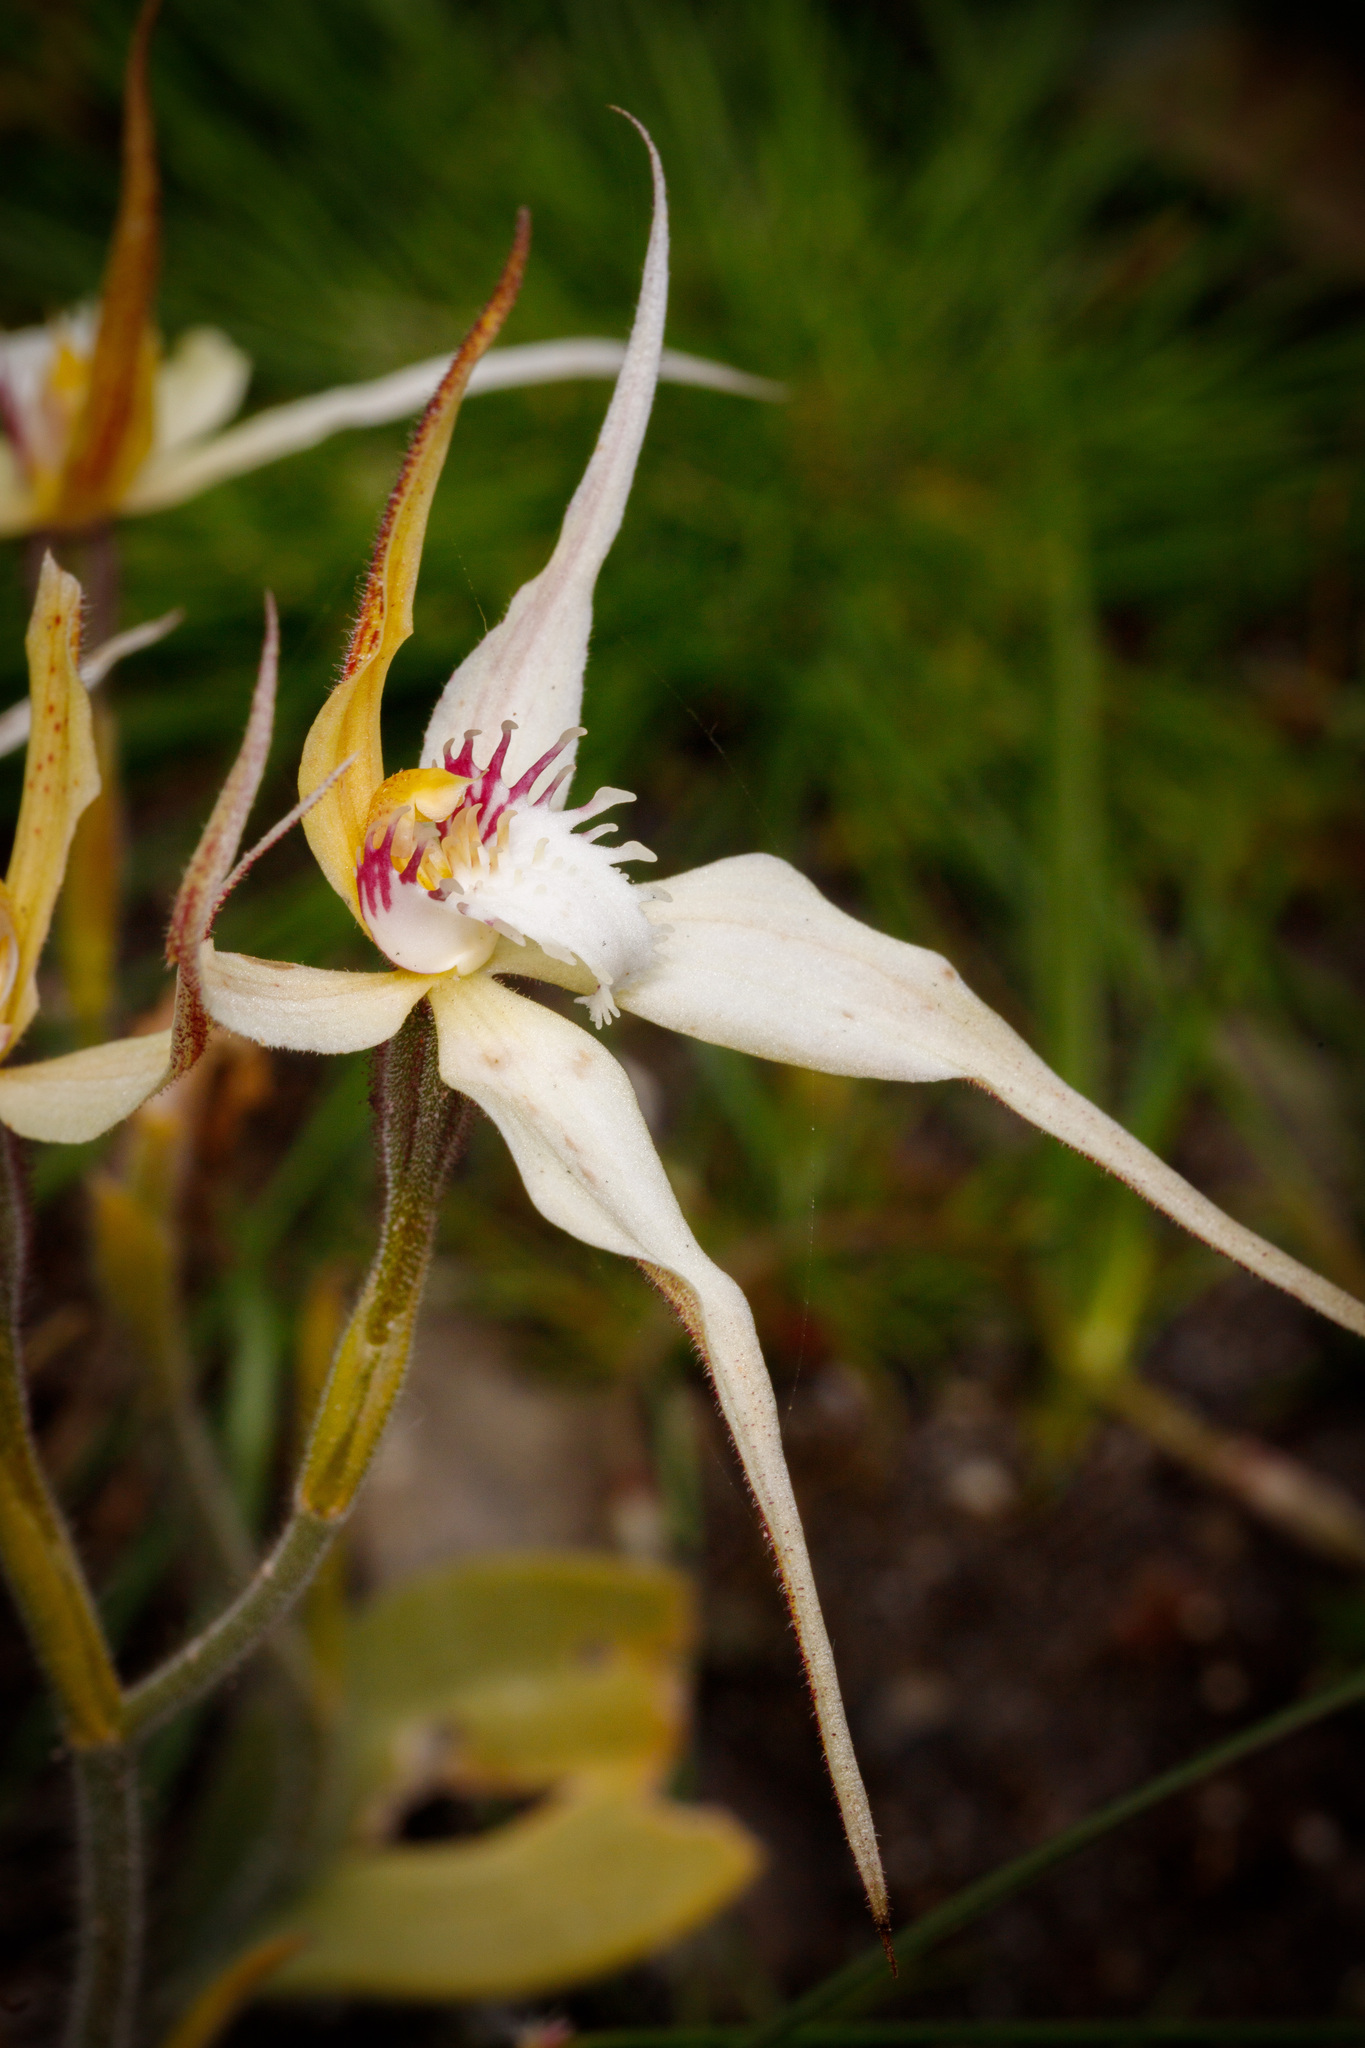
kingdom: Plantae
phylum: Tracheophyta
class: Liliopsida
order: Asparagales
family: Orchidaceae
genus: Caladenia
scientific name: Caladenia triangularis
